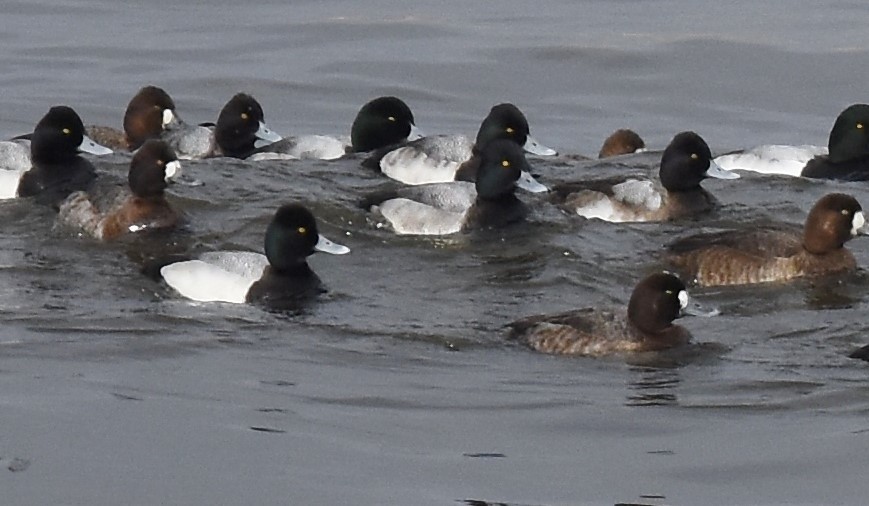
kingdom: Animalia
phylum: Chordata
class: Aves
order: Anseriformes
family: Anatidae
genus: Aythya
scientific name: Aythya affinis
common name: Lesser scaup
